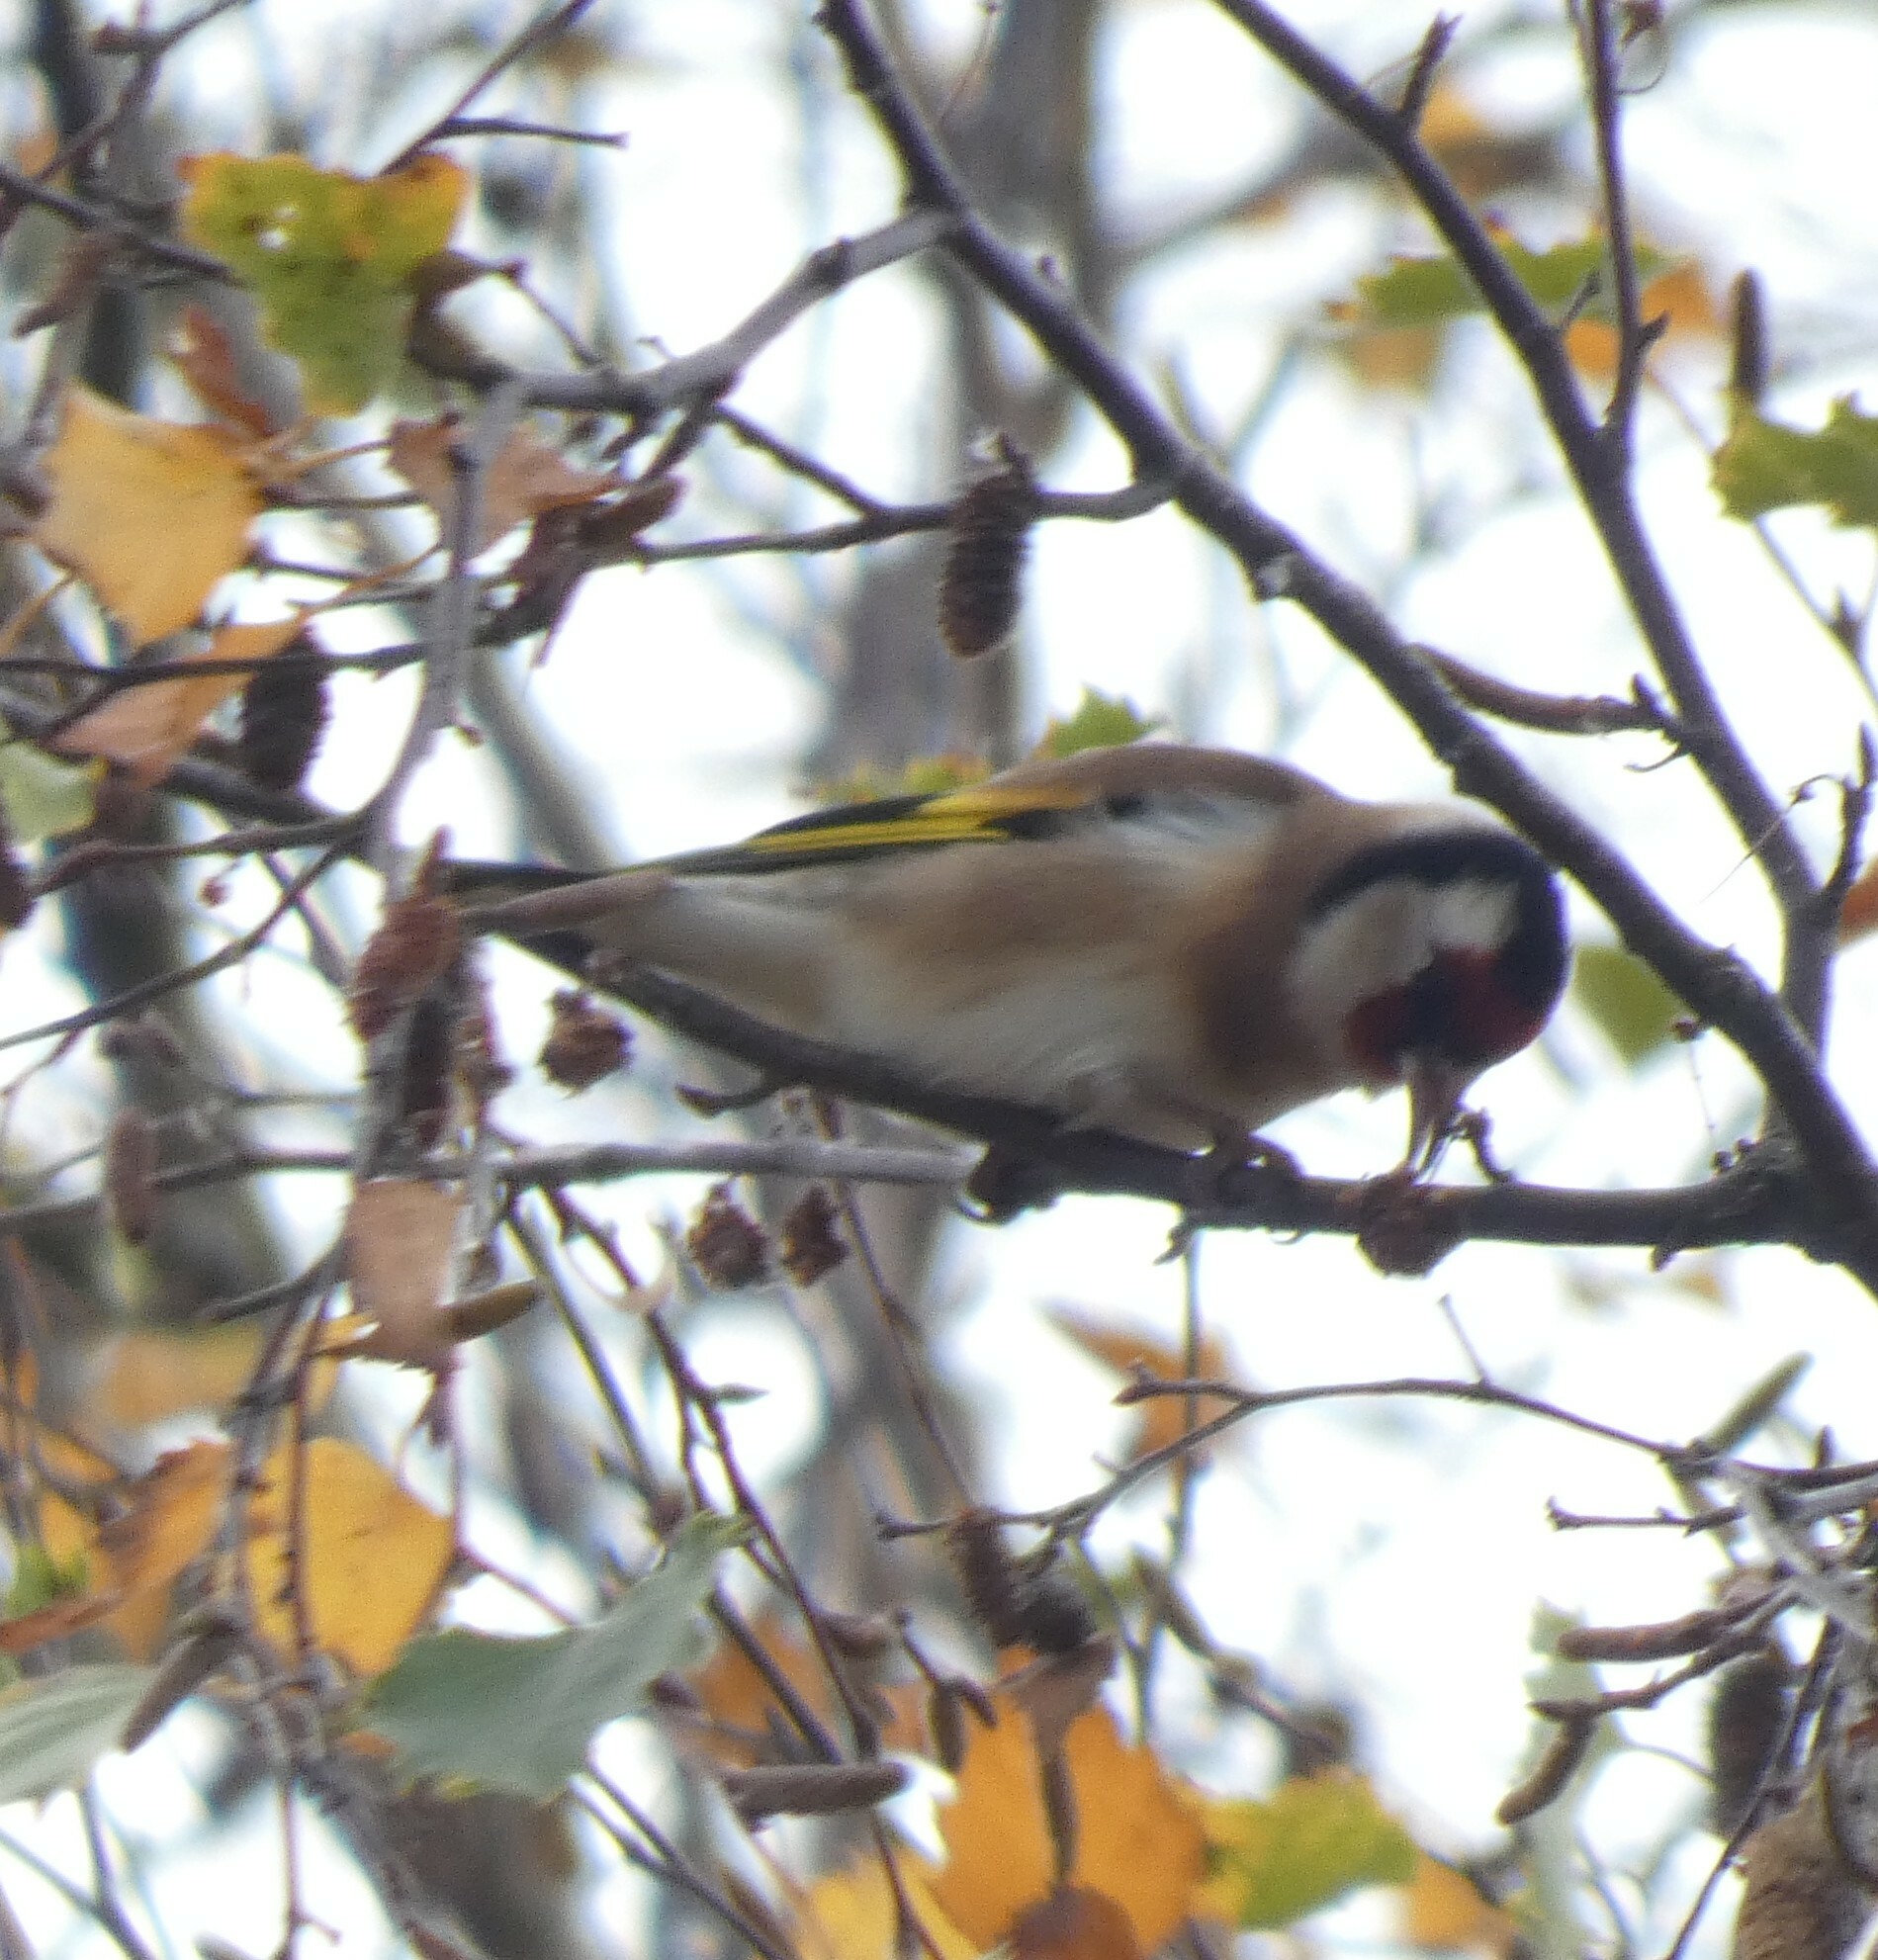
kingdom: Animalia
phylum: Chordata
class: Aves
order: Passeriformes
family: Fringillidae
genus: Carduelis
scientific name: Carduelis carduelis
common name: European goldfinch
